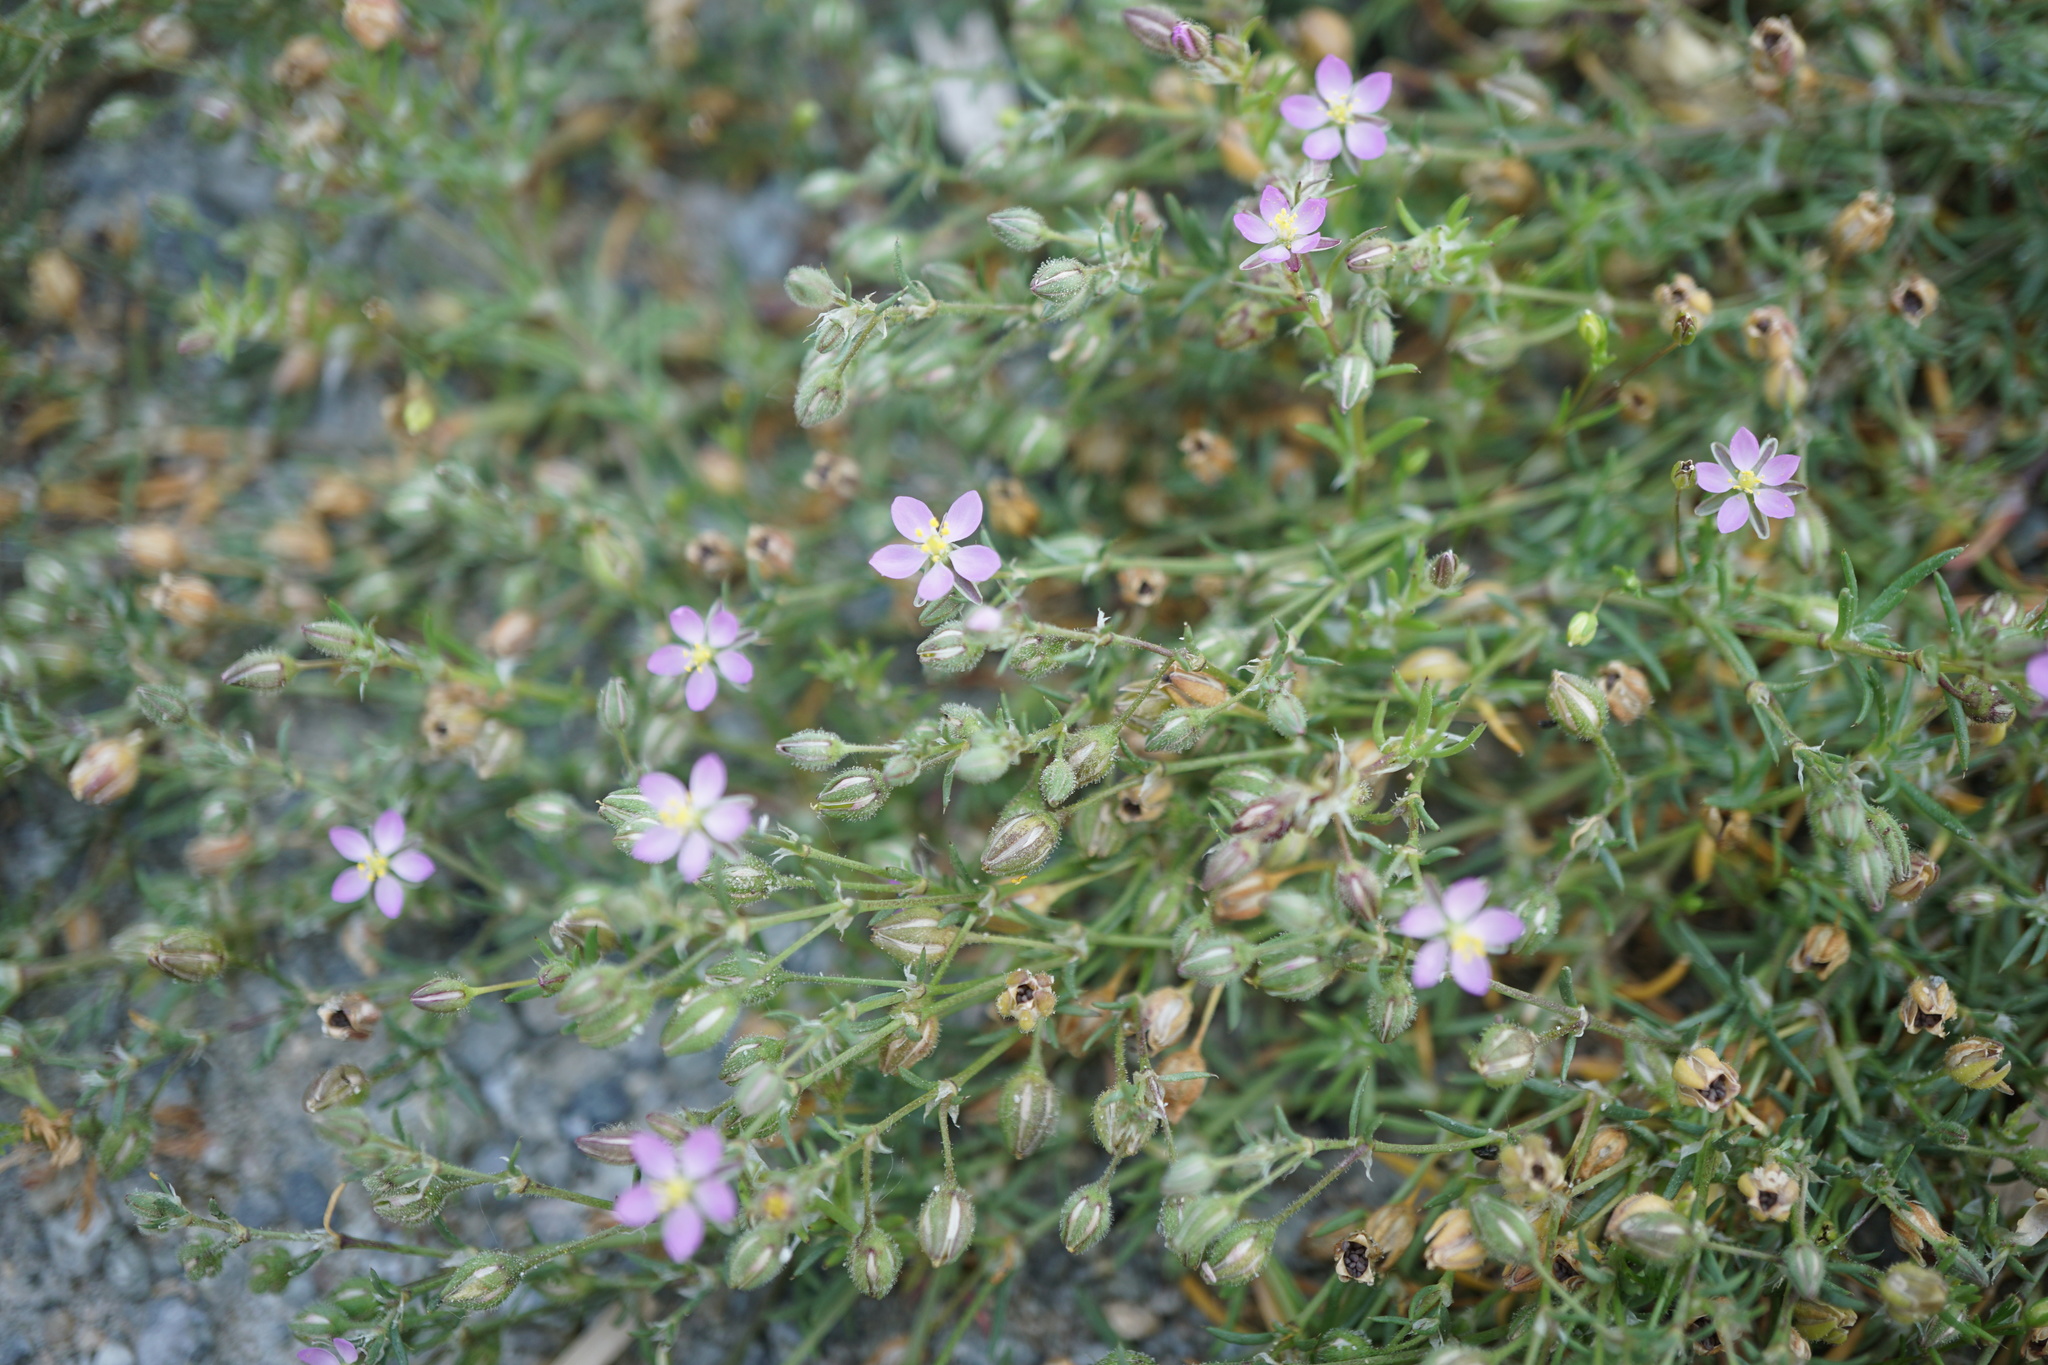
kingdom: Plantae
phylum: Tracheophyta
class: Magnoliopsida
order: Caryophyllales
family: Caryophyllaceae
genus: Spergularia
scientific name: Spergularia rubra
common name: Red sand-spurrey
